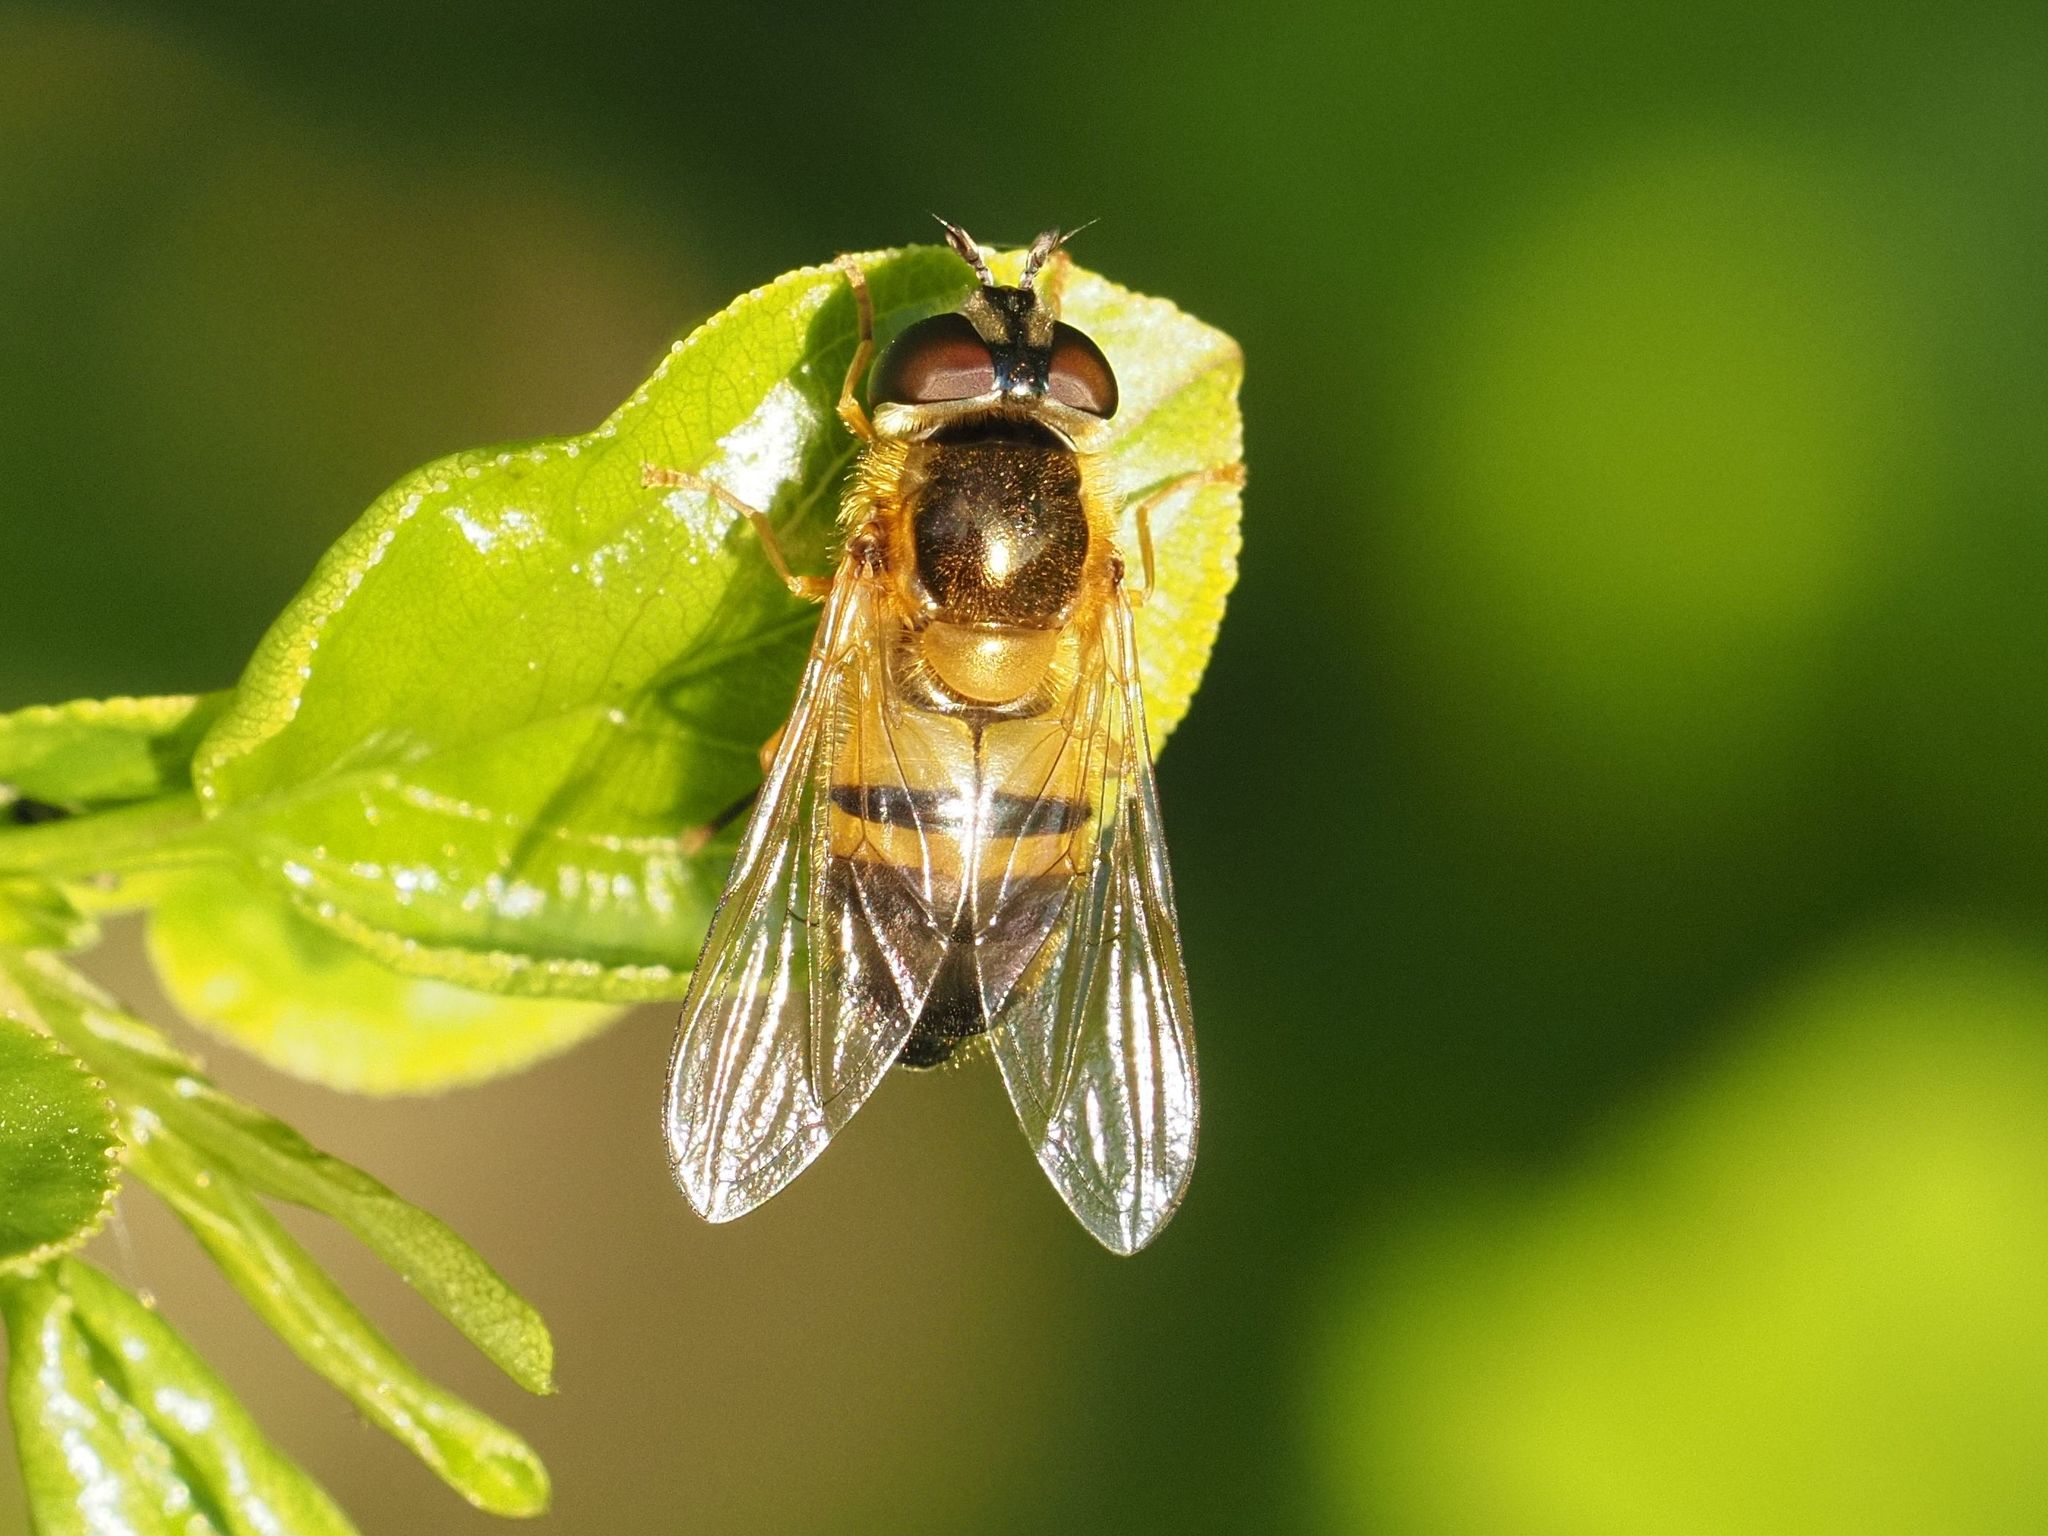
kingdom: Animalia
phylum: Arthropoda
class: Insecta
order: Diptera
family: Syrphidae
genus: Epistrophe
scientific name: Epistrophe eligans
